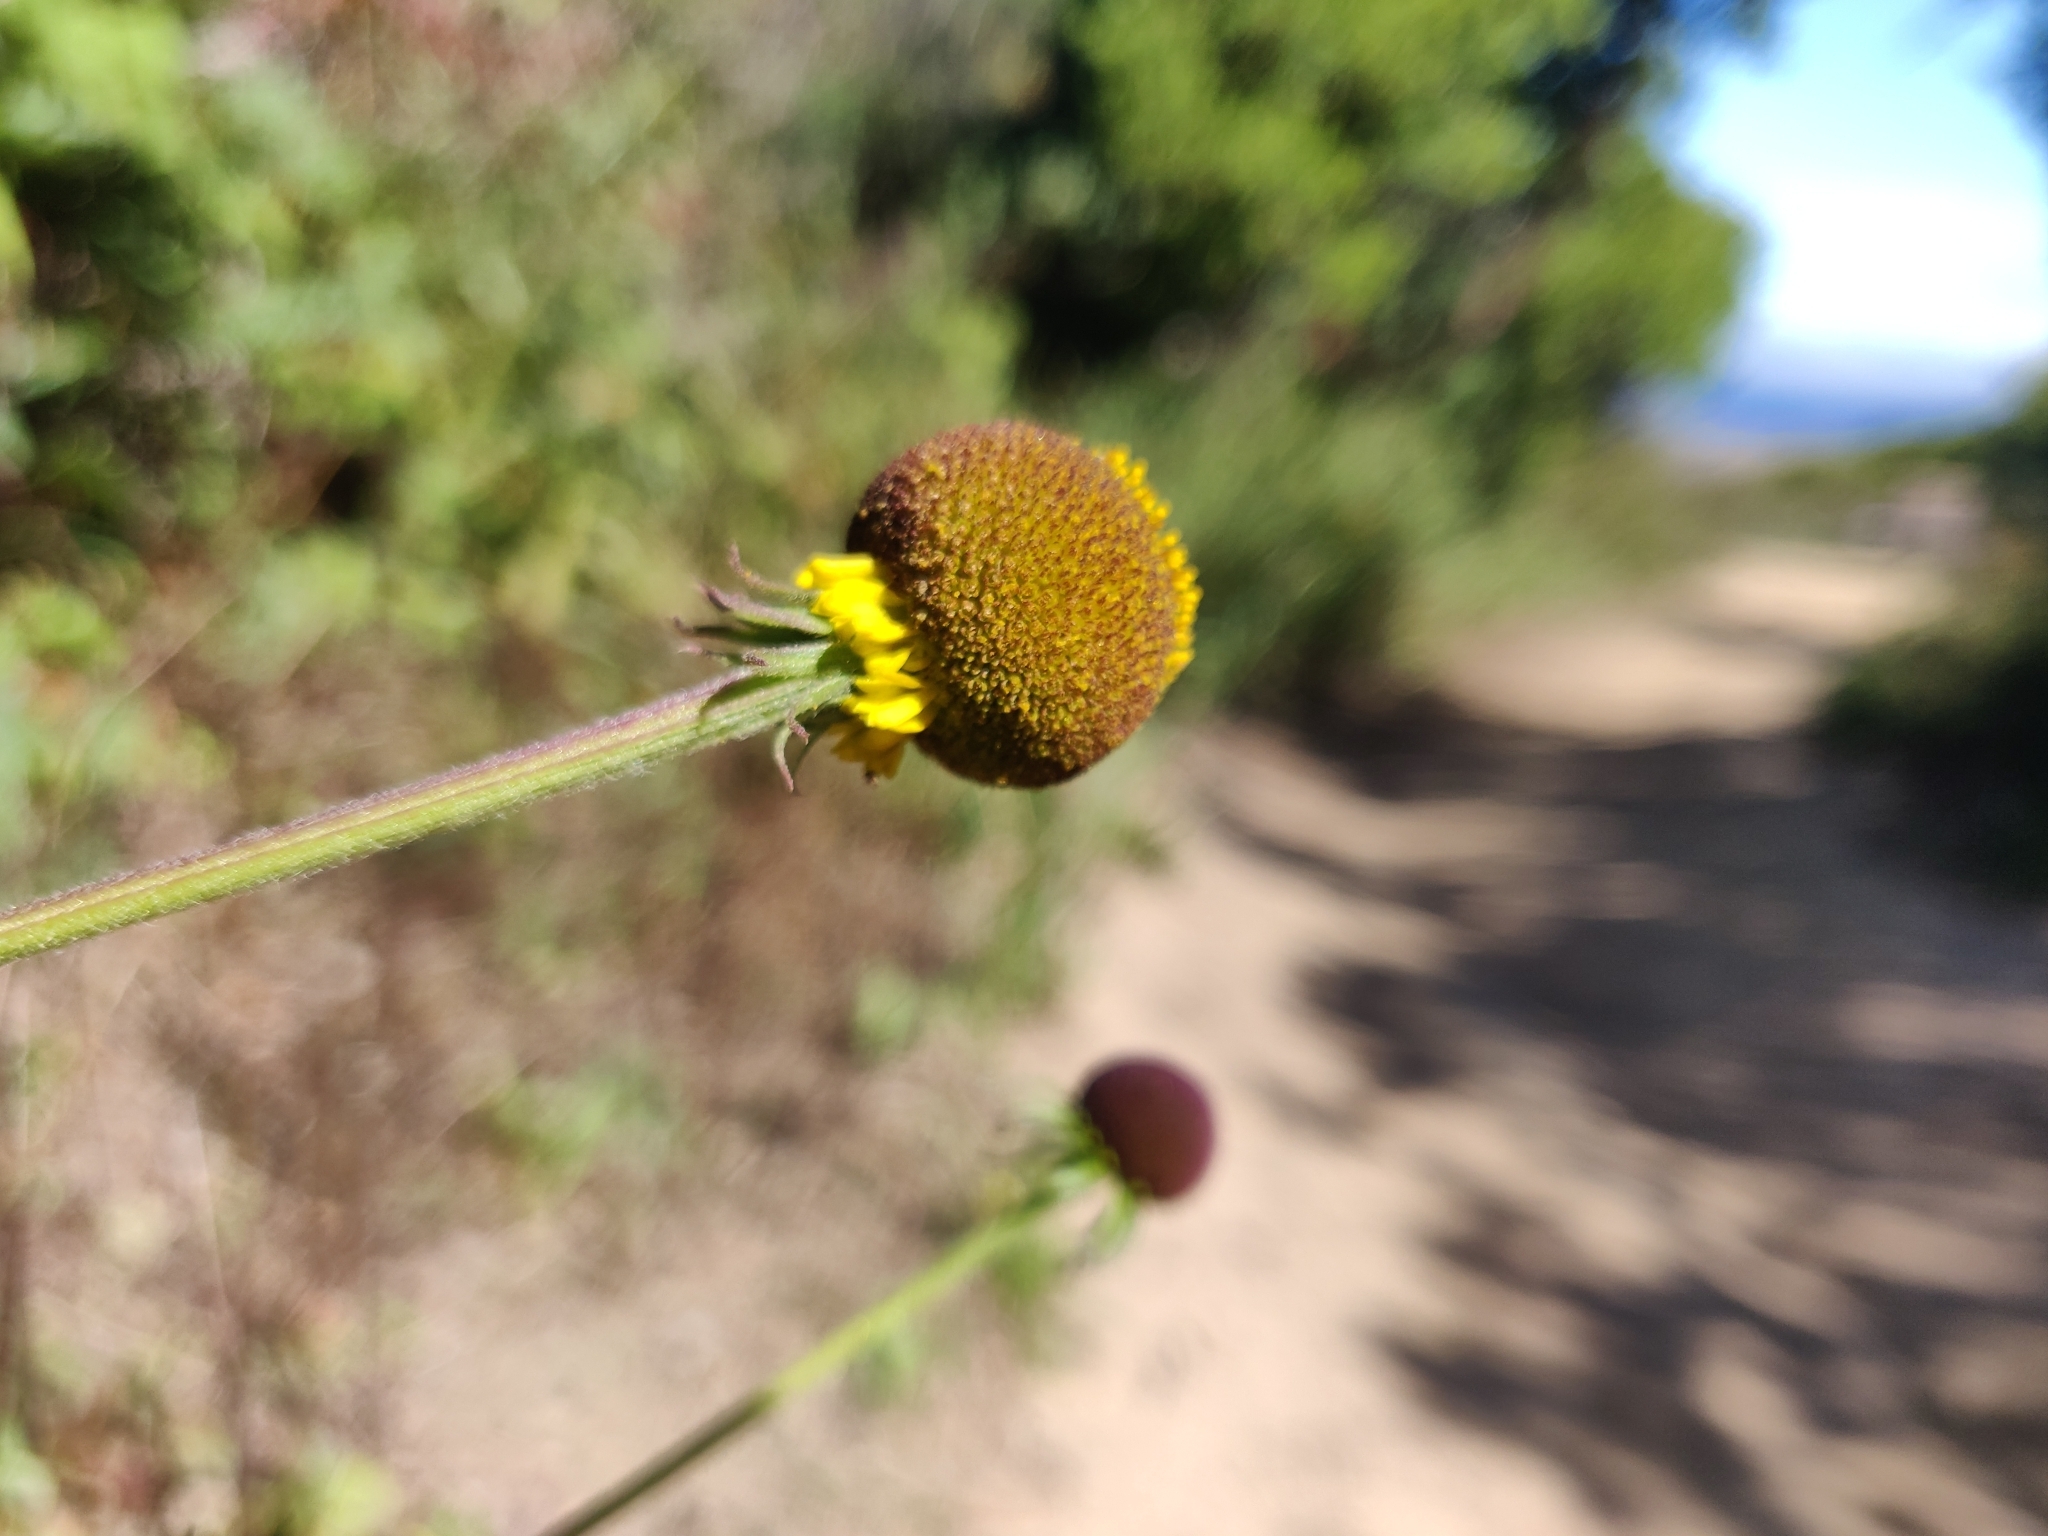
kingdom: Plantae
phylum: Tracheophyta
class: Magnoliopsida
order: Asterales
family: Asteraceae
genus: Helenium
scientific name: Helenium puberulum
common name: Sneezewort
